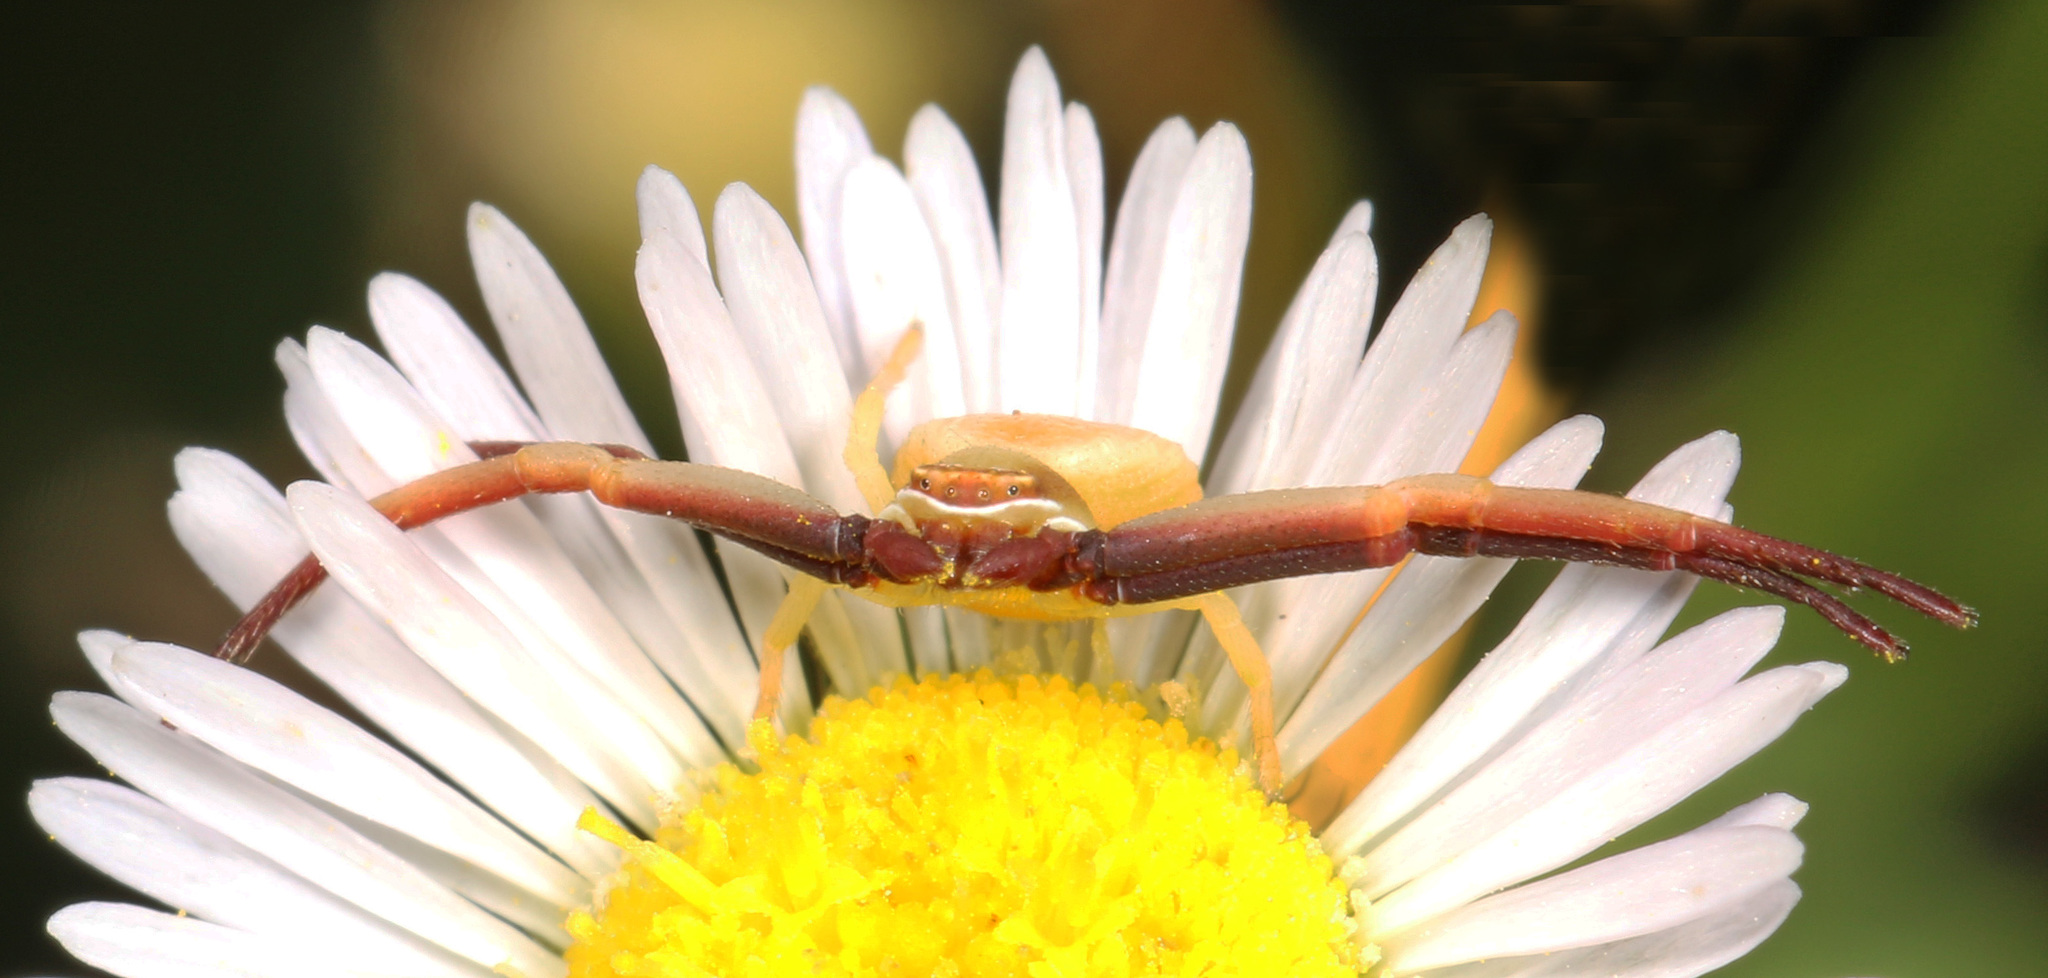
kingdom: Animalia
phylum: Arthropoda
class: Arachnida
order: Araneae
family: Thomisidae
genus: Misumenoides
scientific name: Misumenoides formosipes
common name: White-banded crab spider
